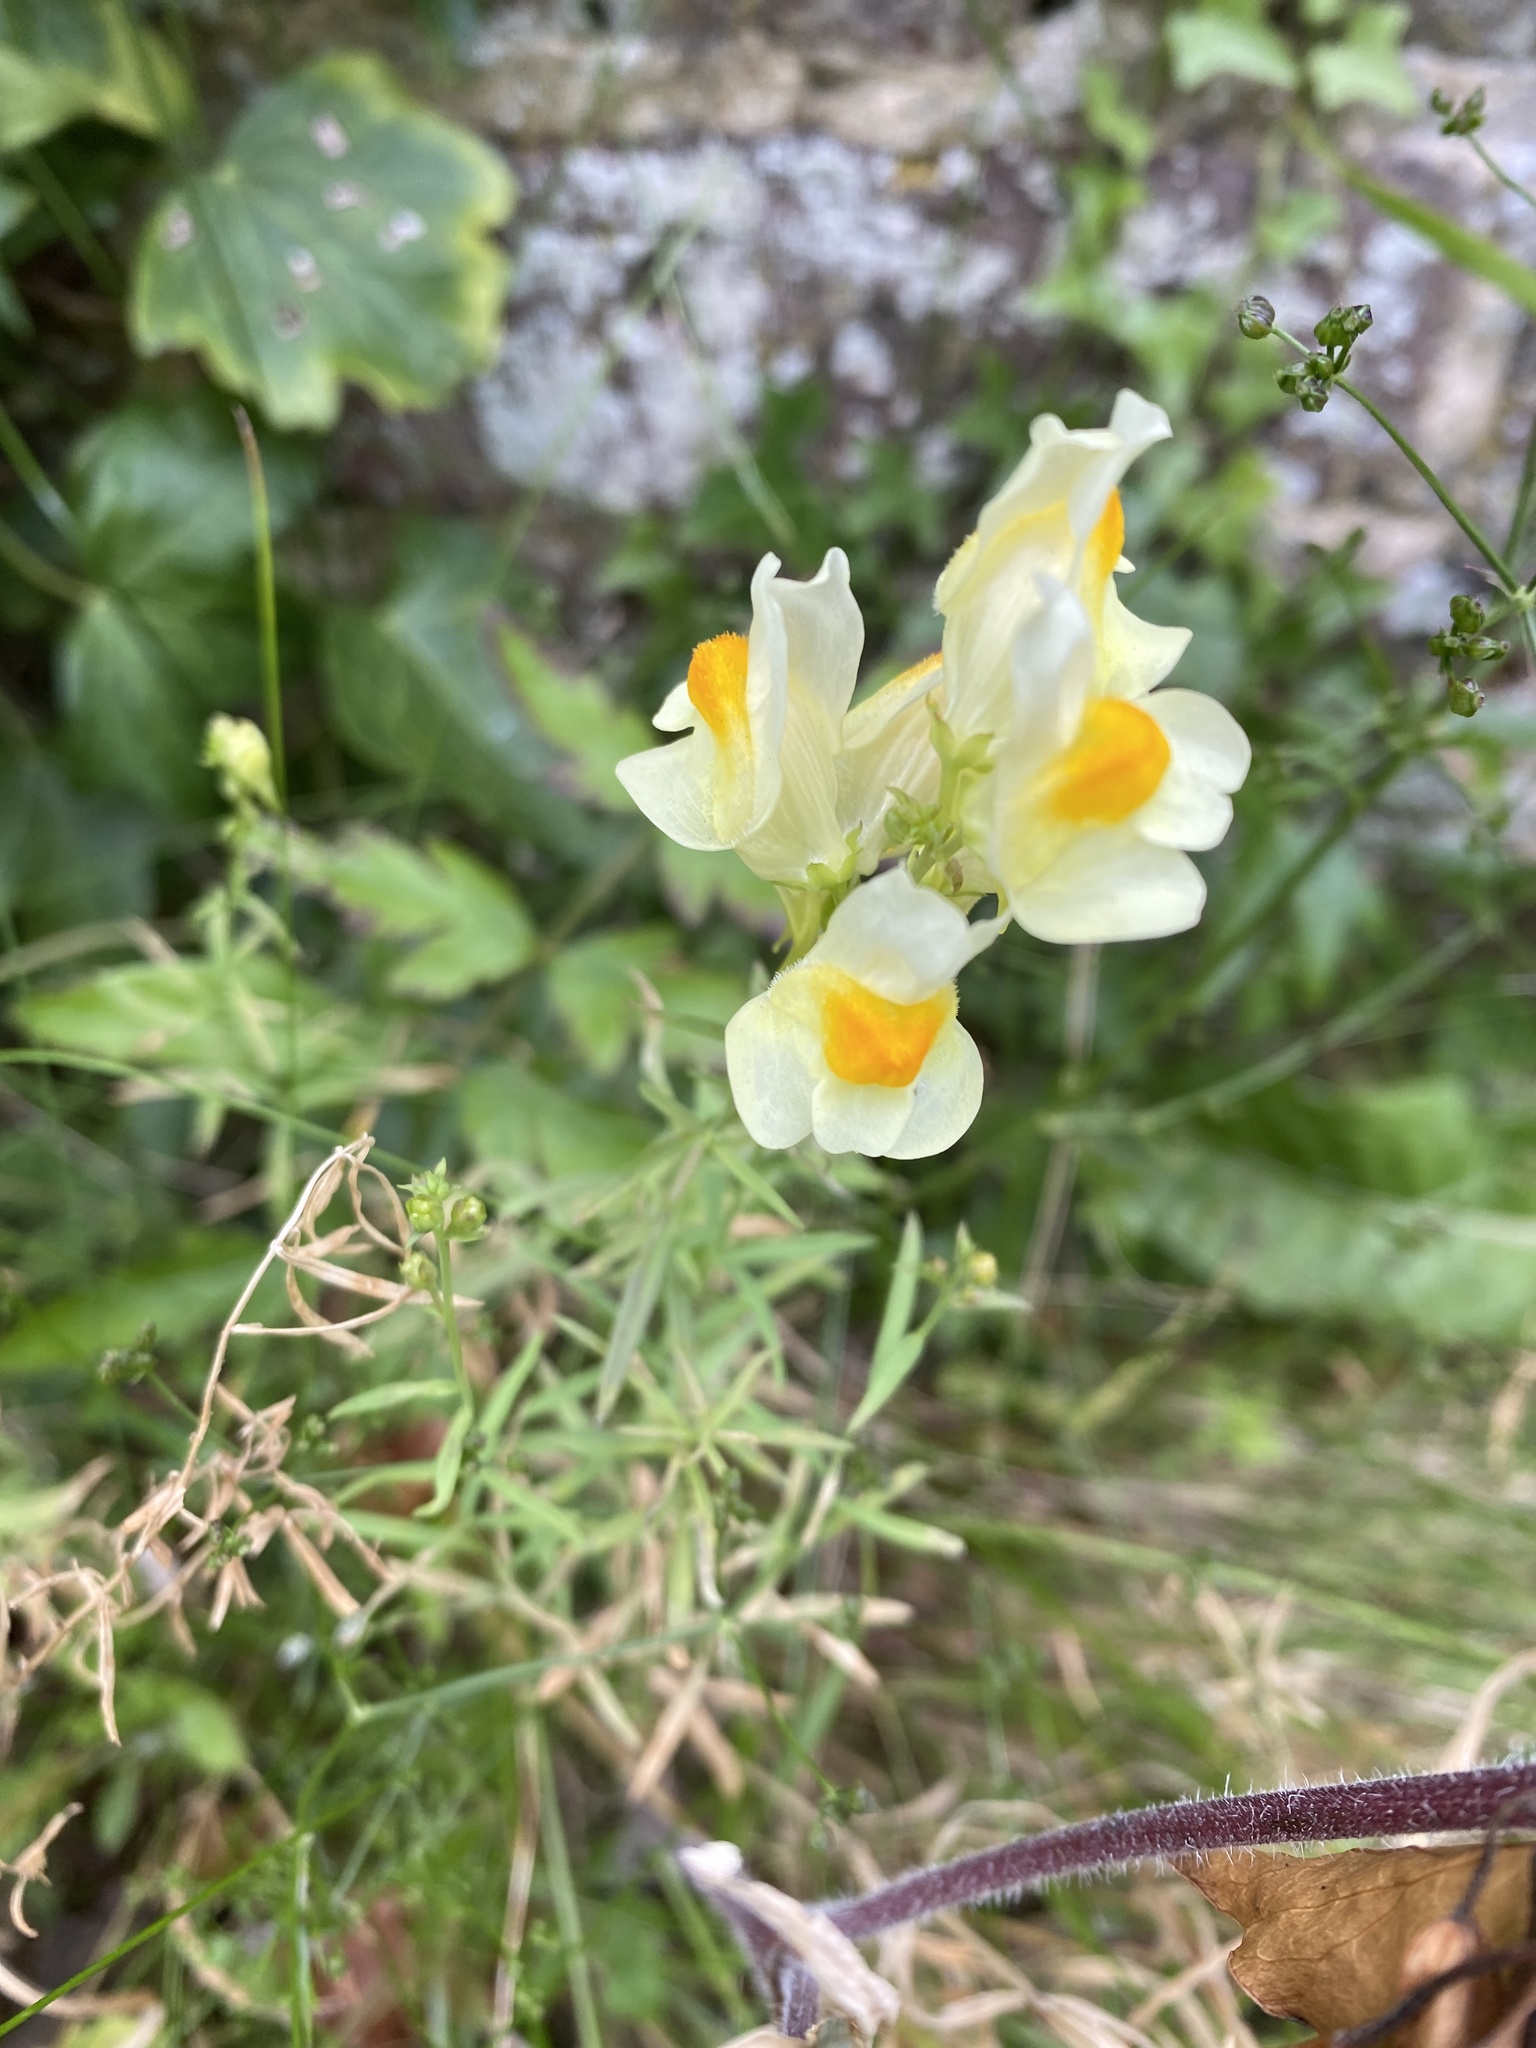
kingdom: Plantae
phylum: Tracheophyta
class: Magnoliopsida
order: Lamiales
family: Plantaginaceae
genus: Linaria
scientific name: Linaria vulgaris
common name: Butter and eggs
